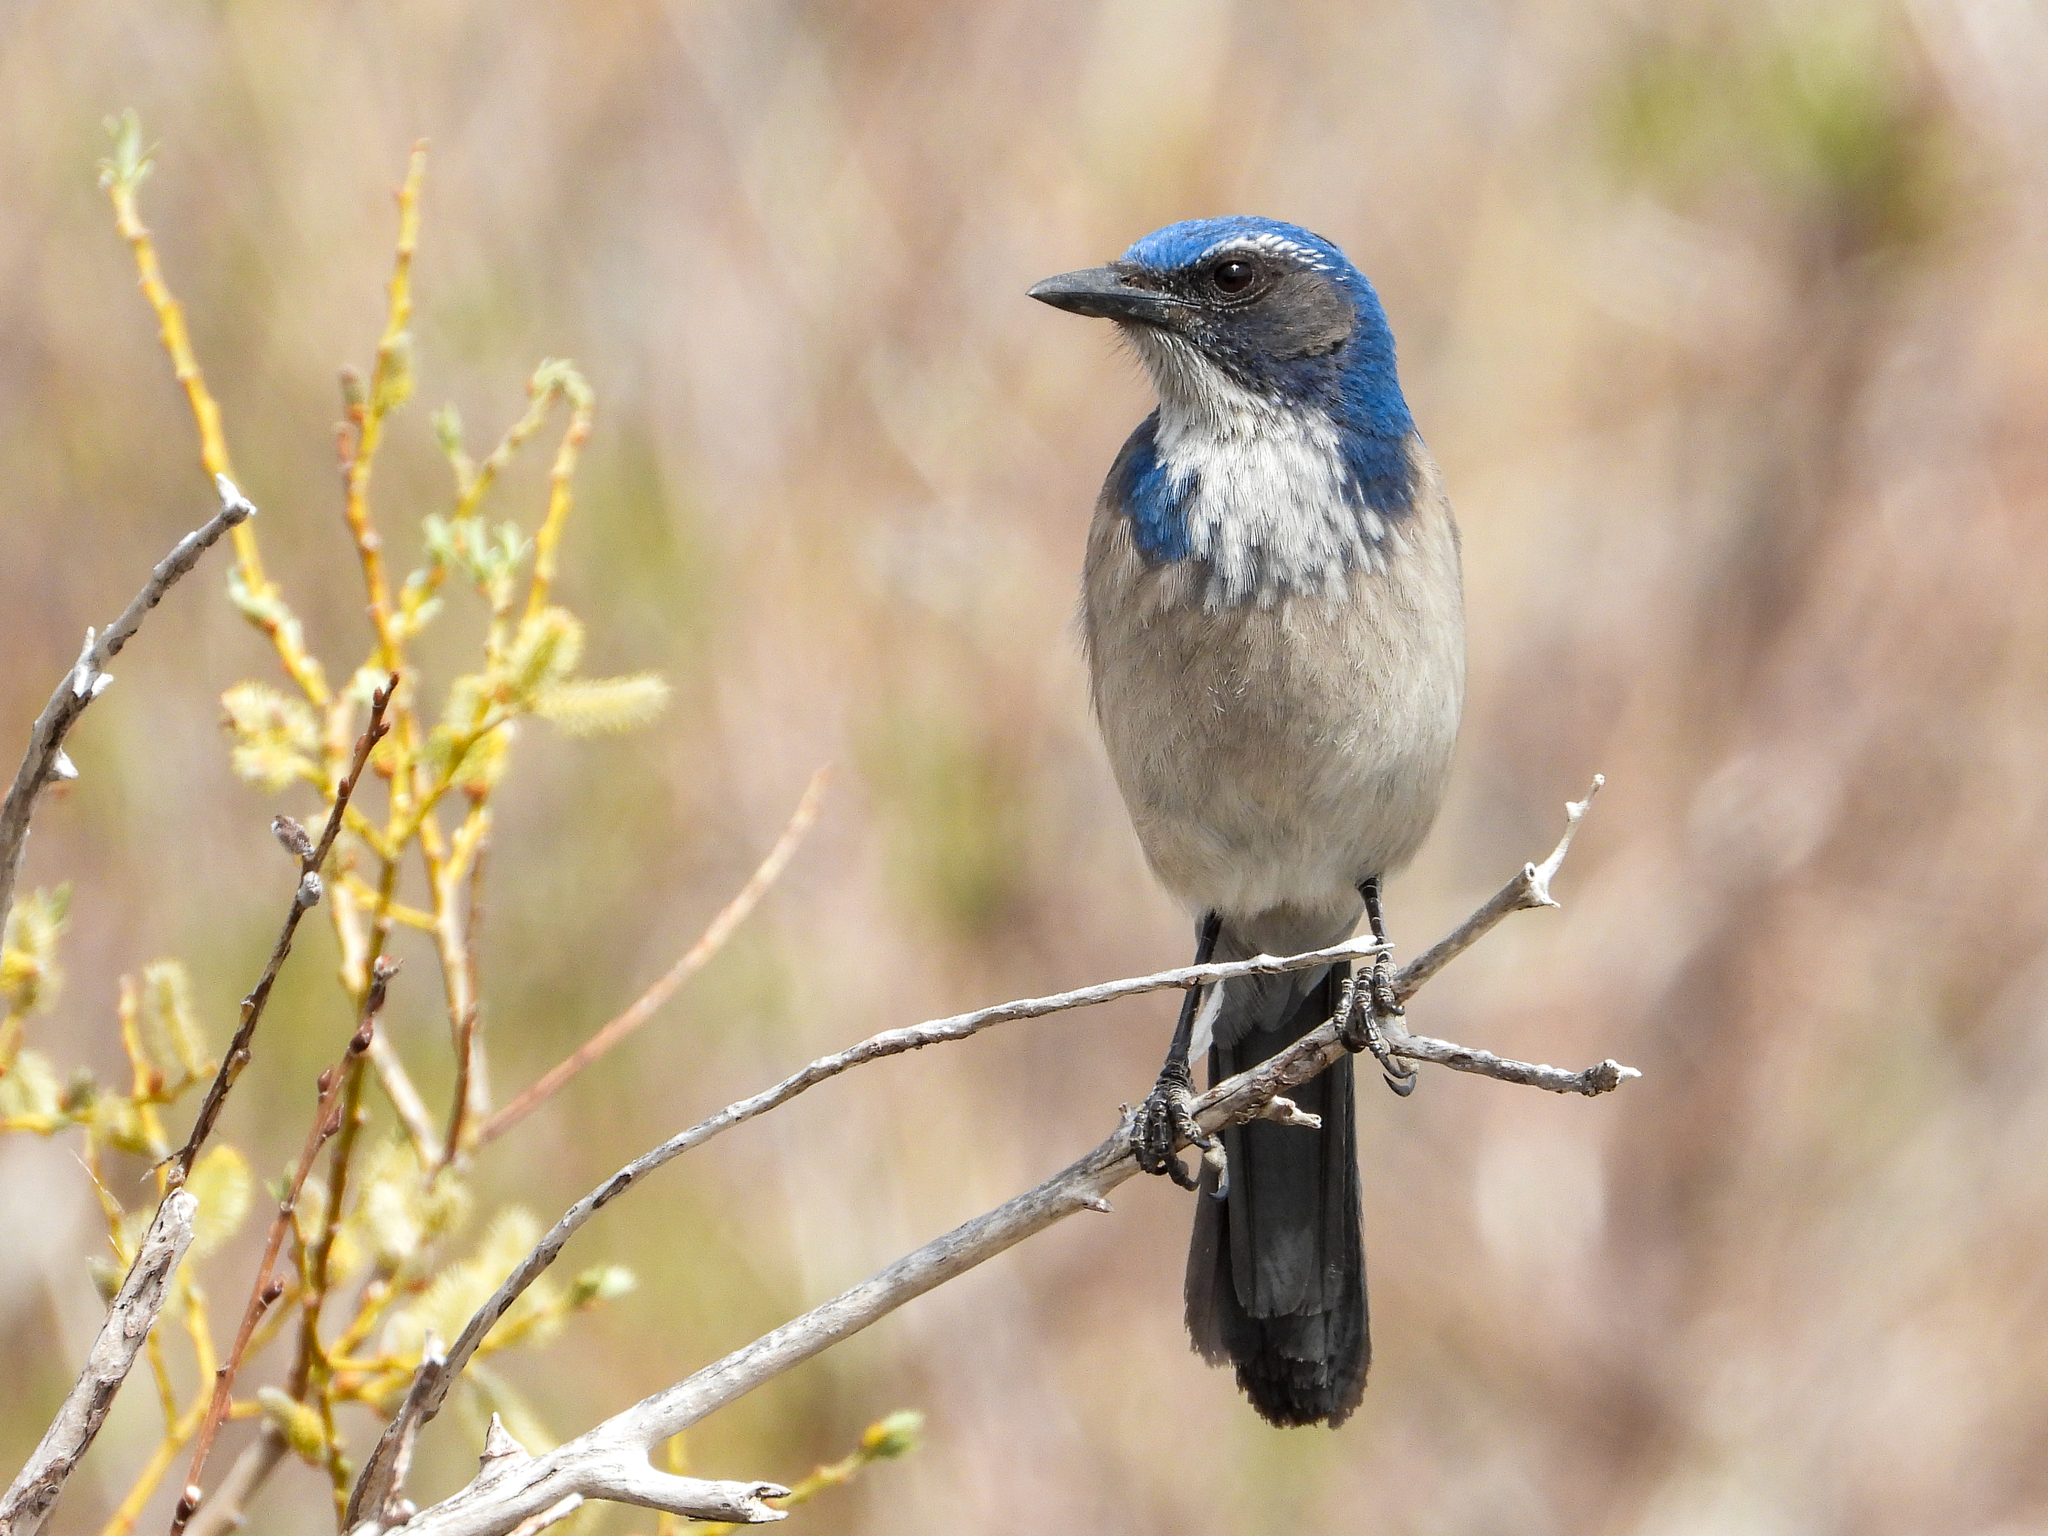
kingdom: Animalia
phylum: Chordata
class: Aves
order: Passeriformes
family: Corvidae
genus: Aphelocoma
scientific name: Aphelocoma californica
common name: California scrub-jay
